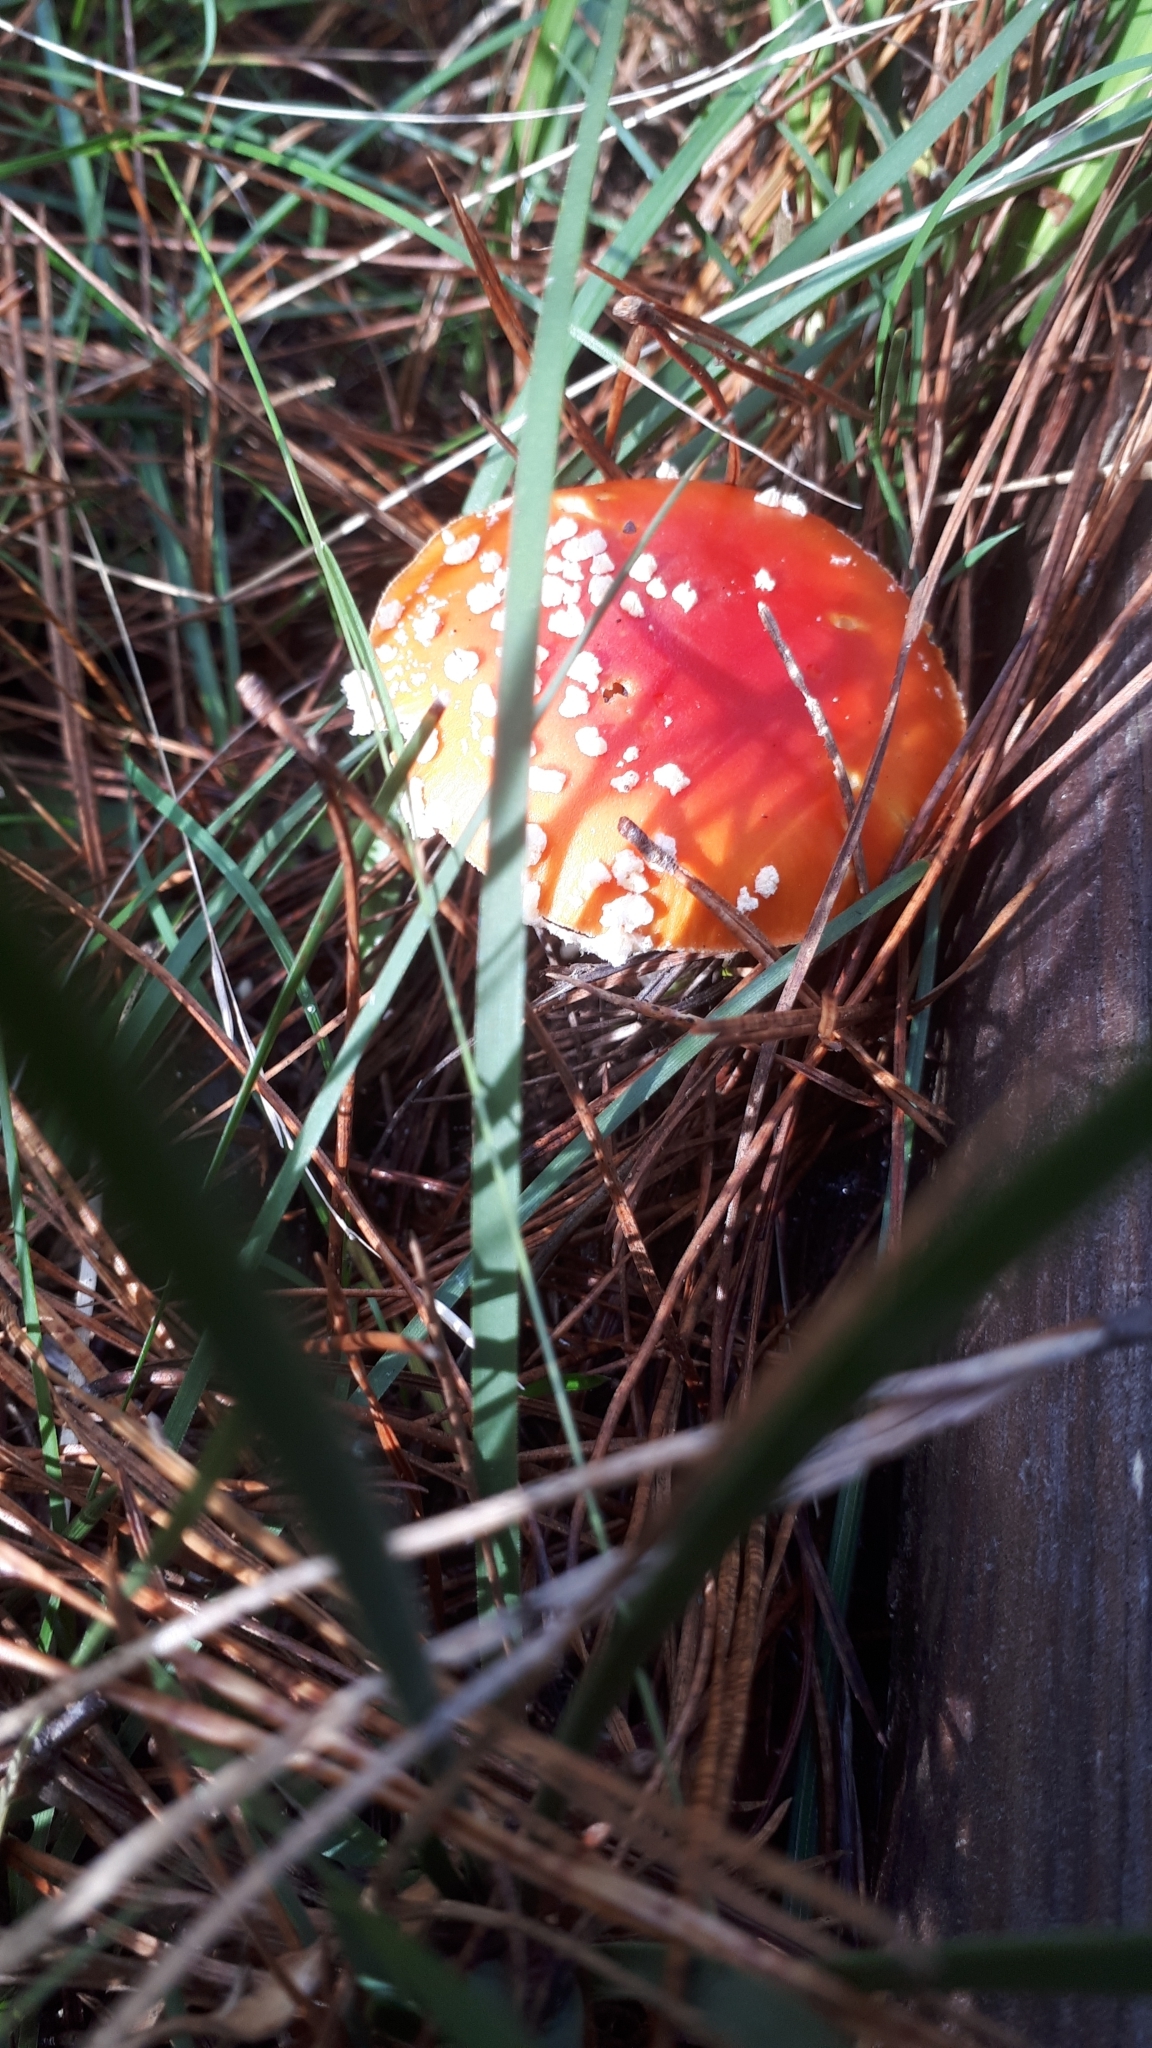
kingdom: Fungi
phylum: Basidiomycota
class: Agaricomycetes
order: Agaricales
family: Amanitaceae
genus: Amanita
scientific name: Amanita muscaria
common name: Fly agaric
